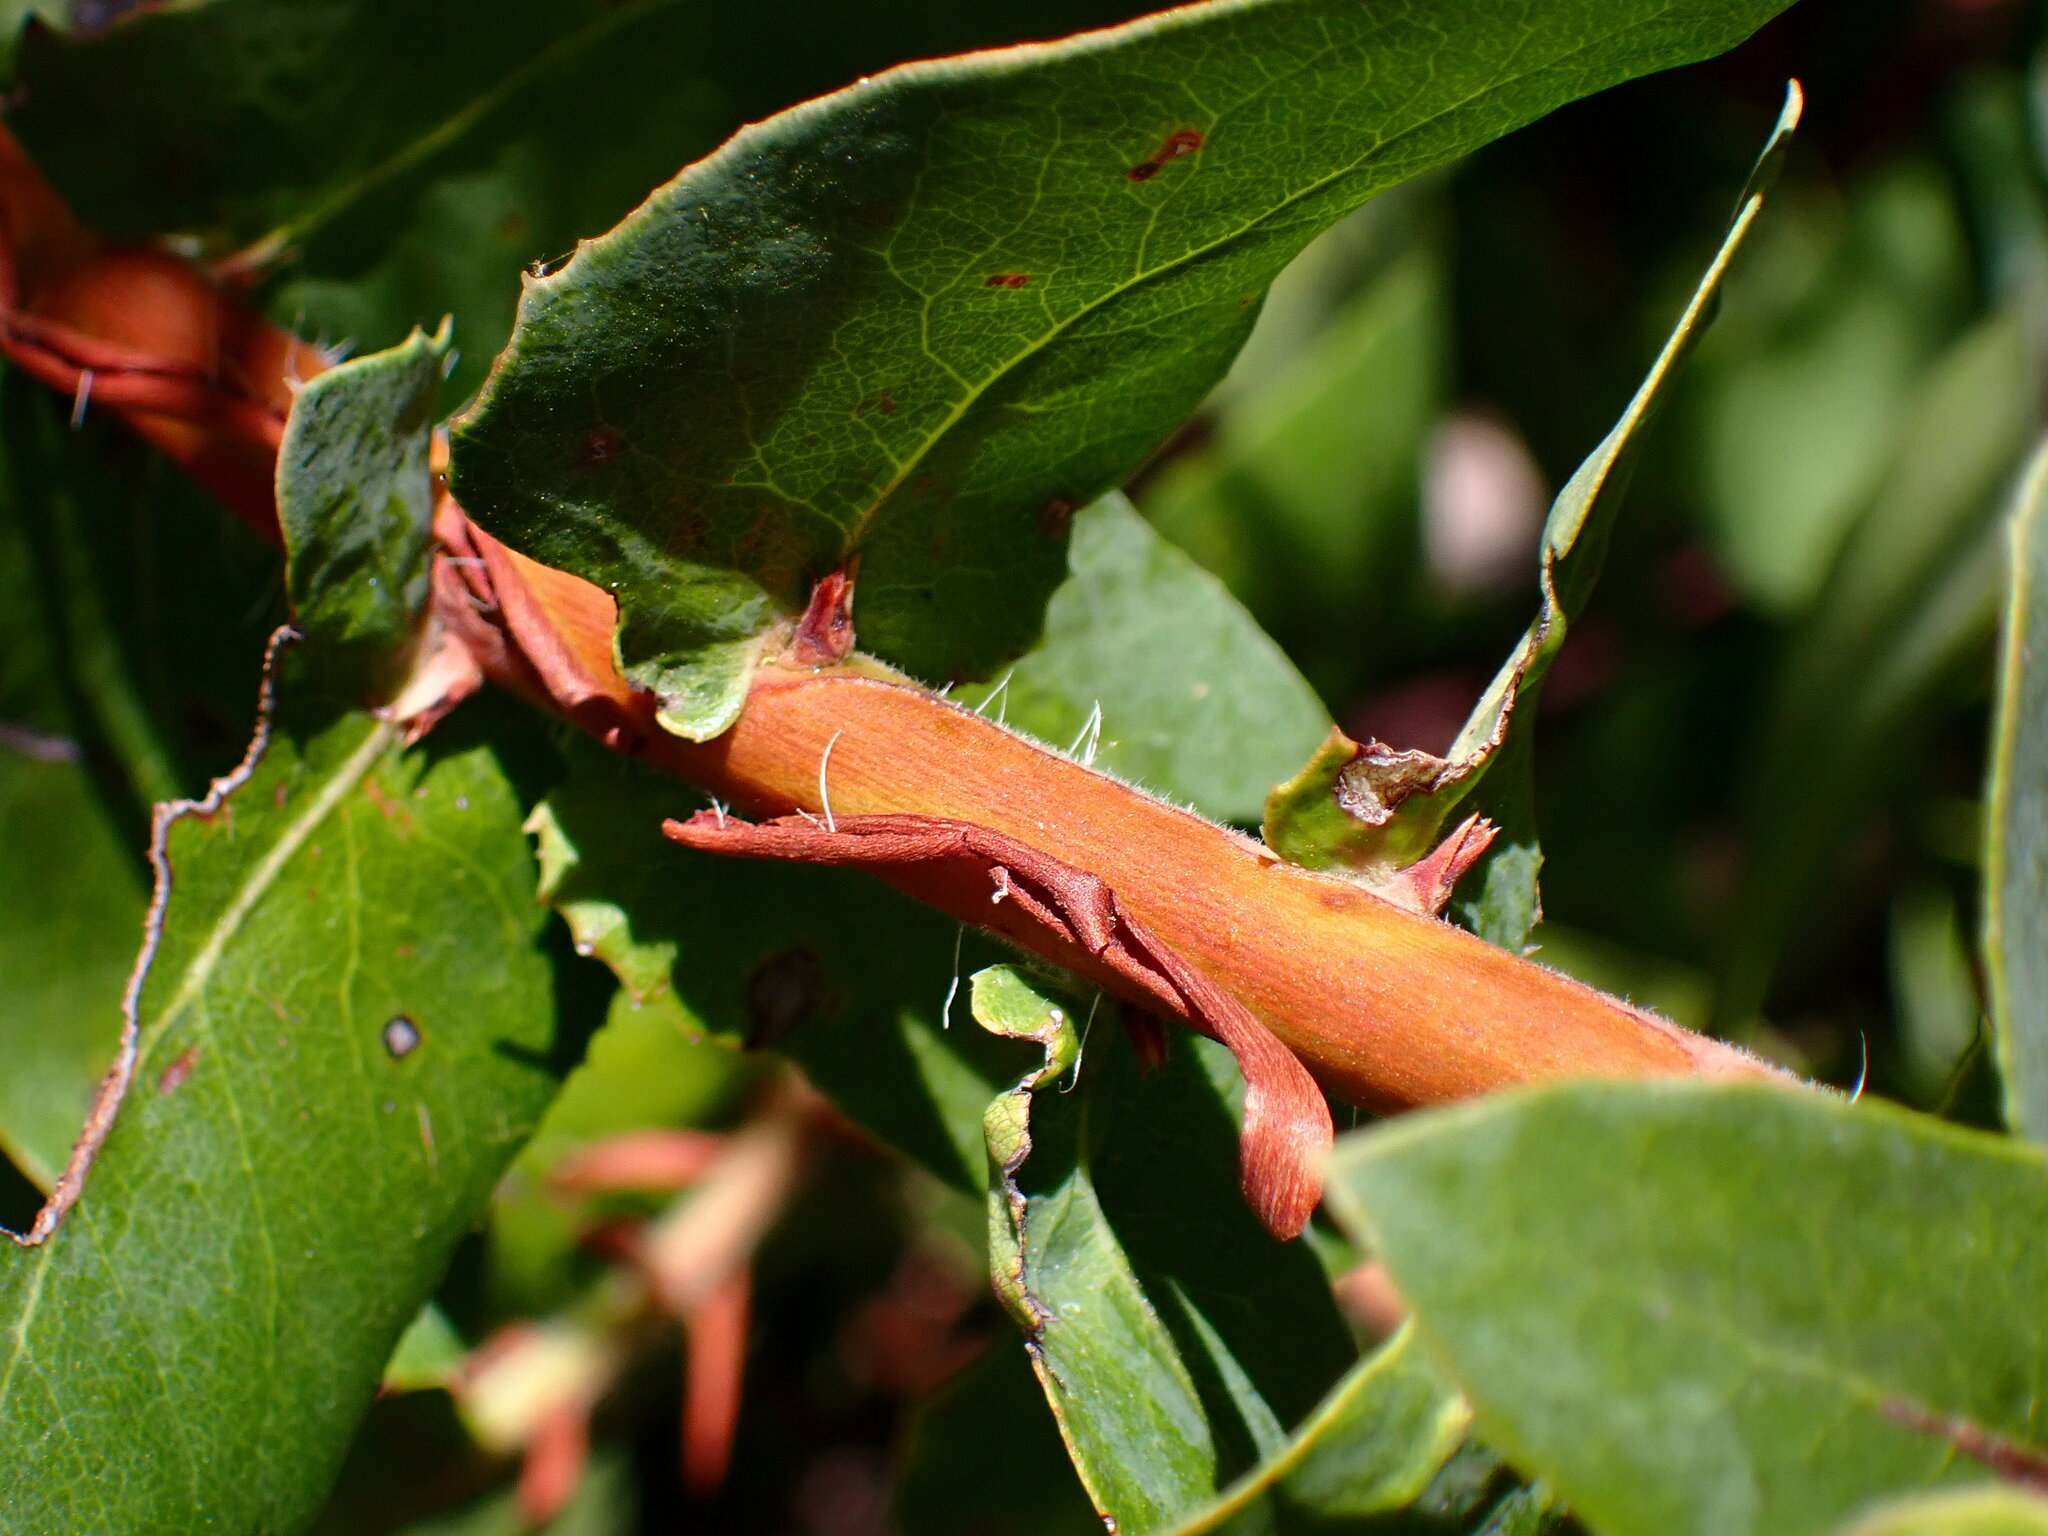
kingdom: Plantae
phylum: Tracheophyta
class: Magnoliopsida
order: Ericales
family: Ericaceae
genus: Arctostaphylos
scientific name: Arctostaphylos andersonii
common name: Santa cruz manzanita
